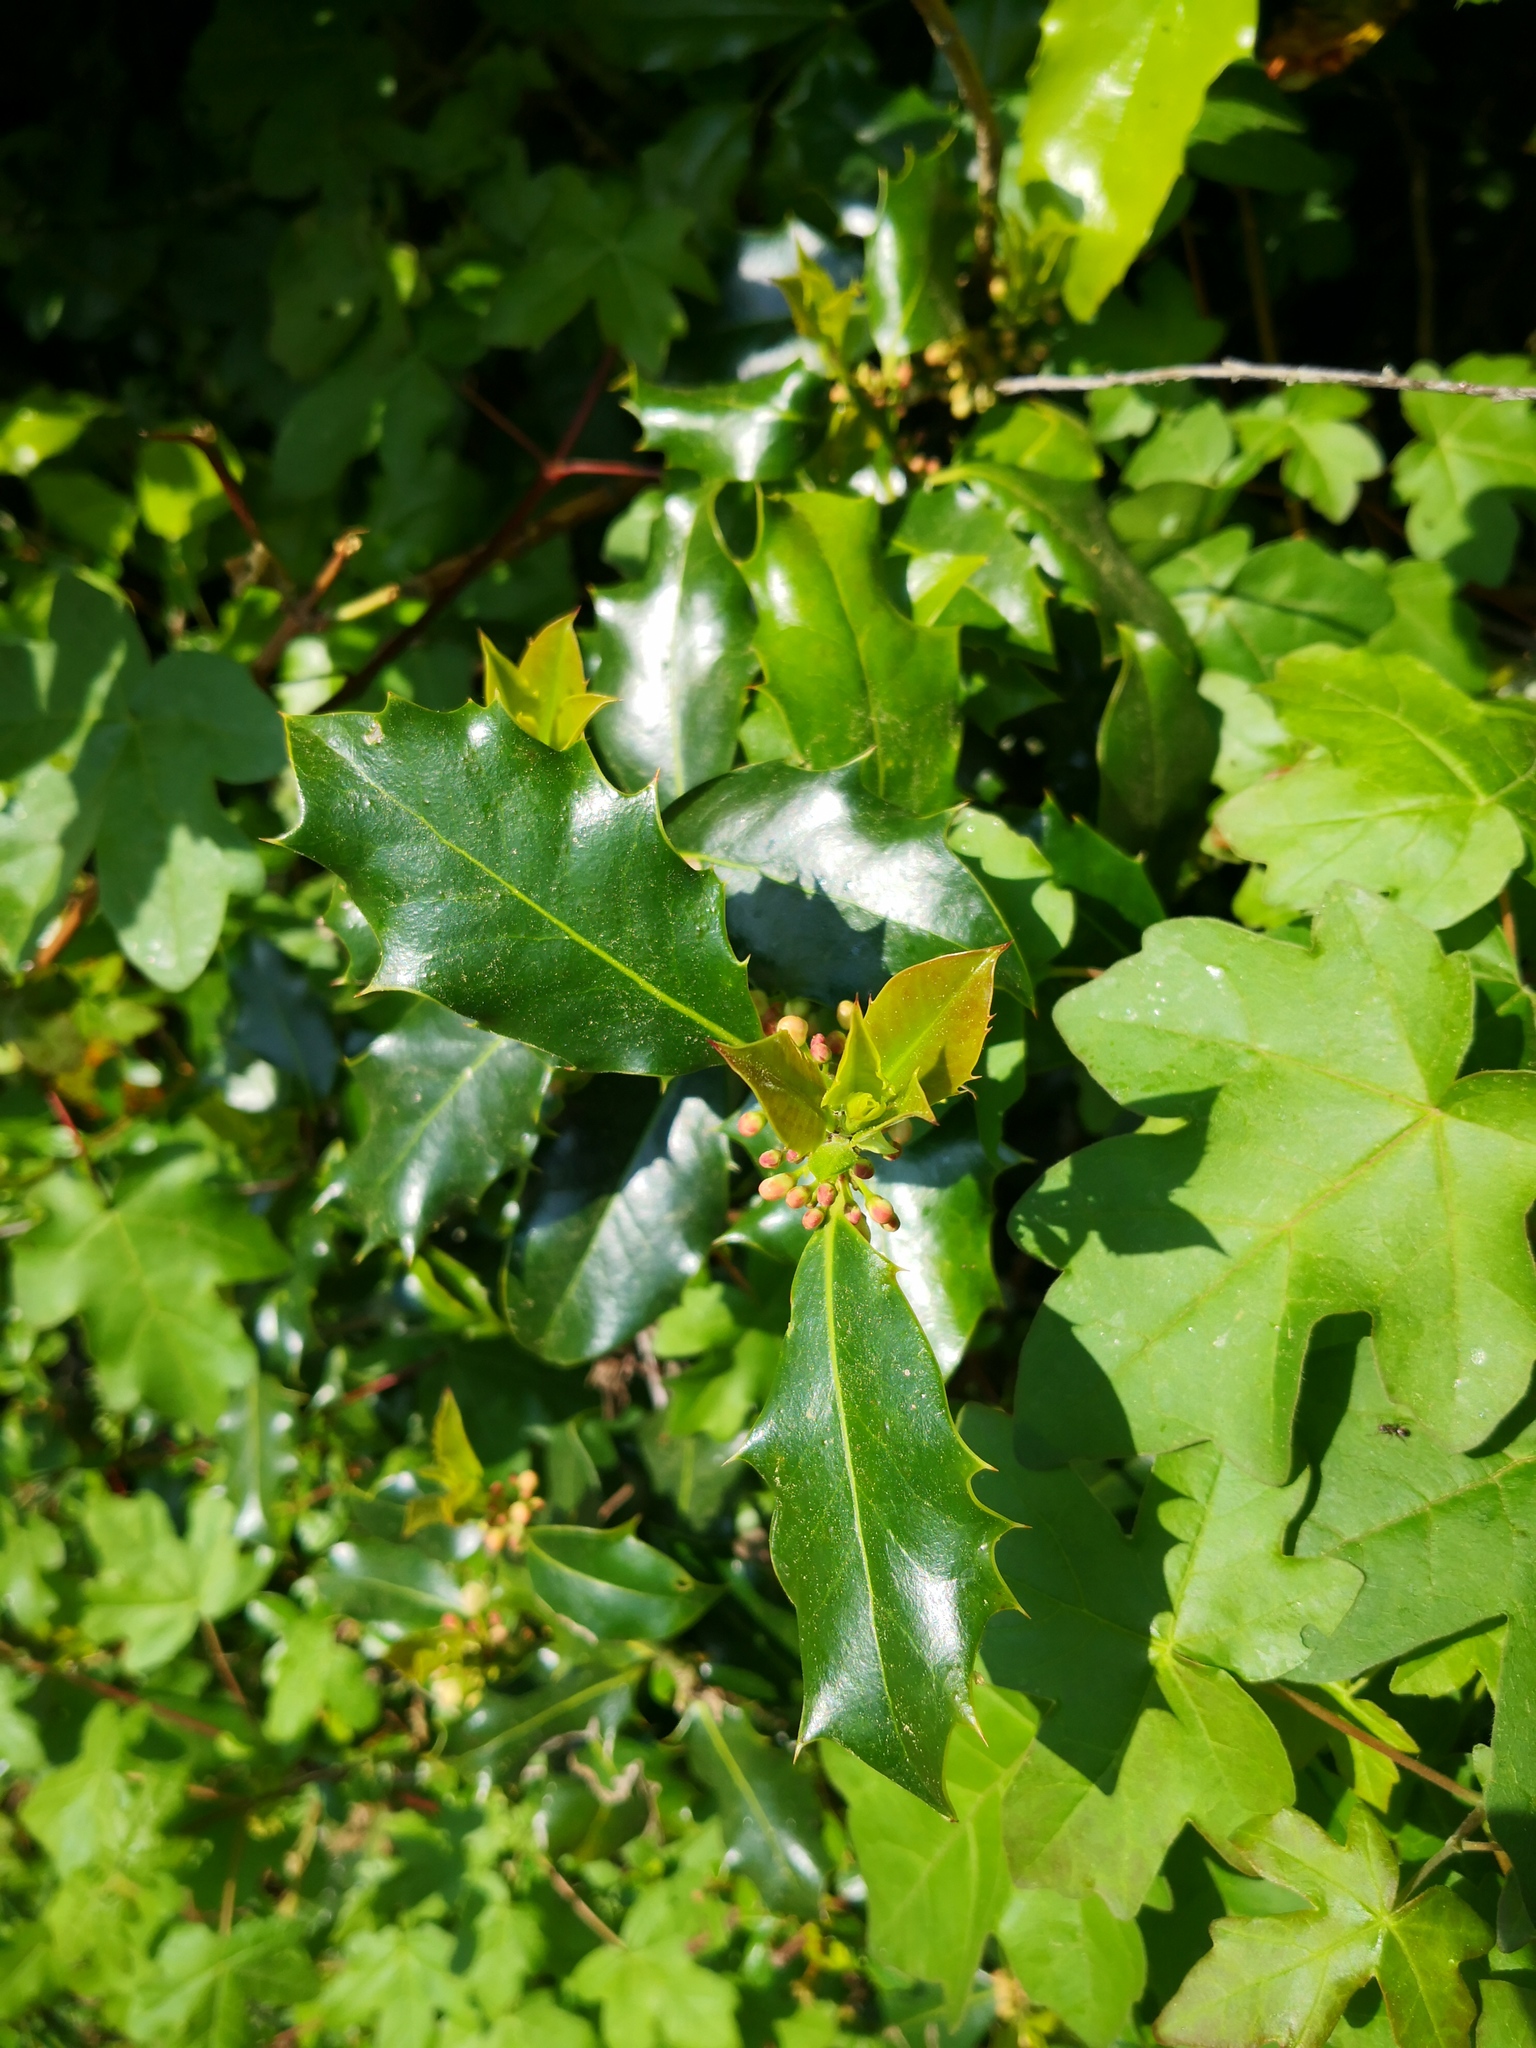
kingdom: Plantae
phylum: Tracheophyta
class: Magnoliopsida
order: Aquifoliales
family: Aquifoliaceae
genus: Ilex
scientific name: Ilex aquifolium
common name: English holly
